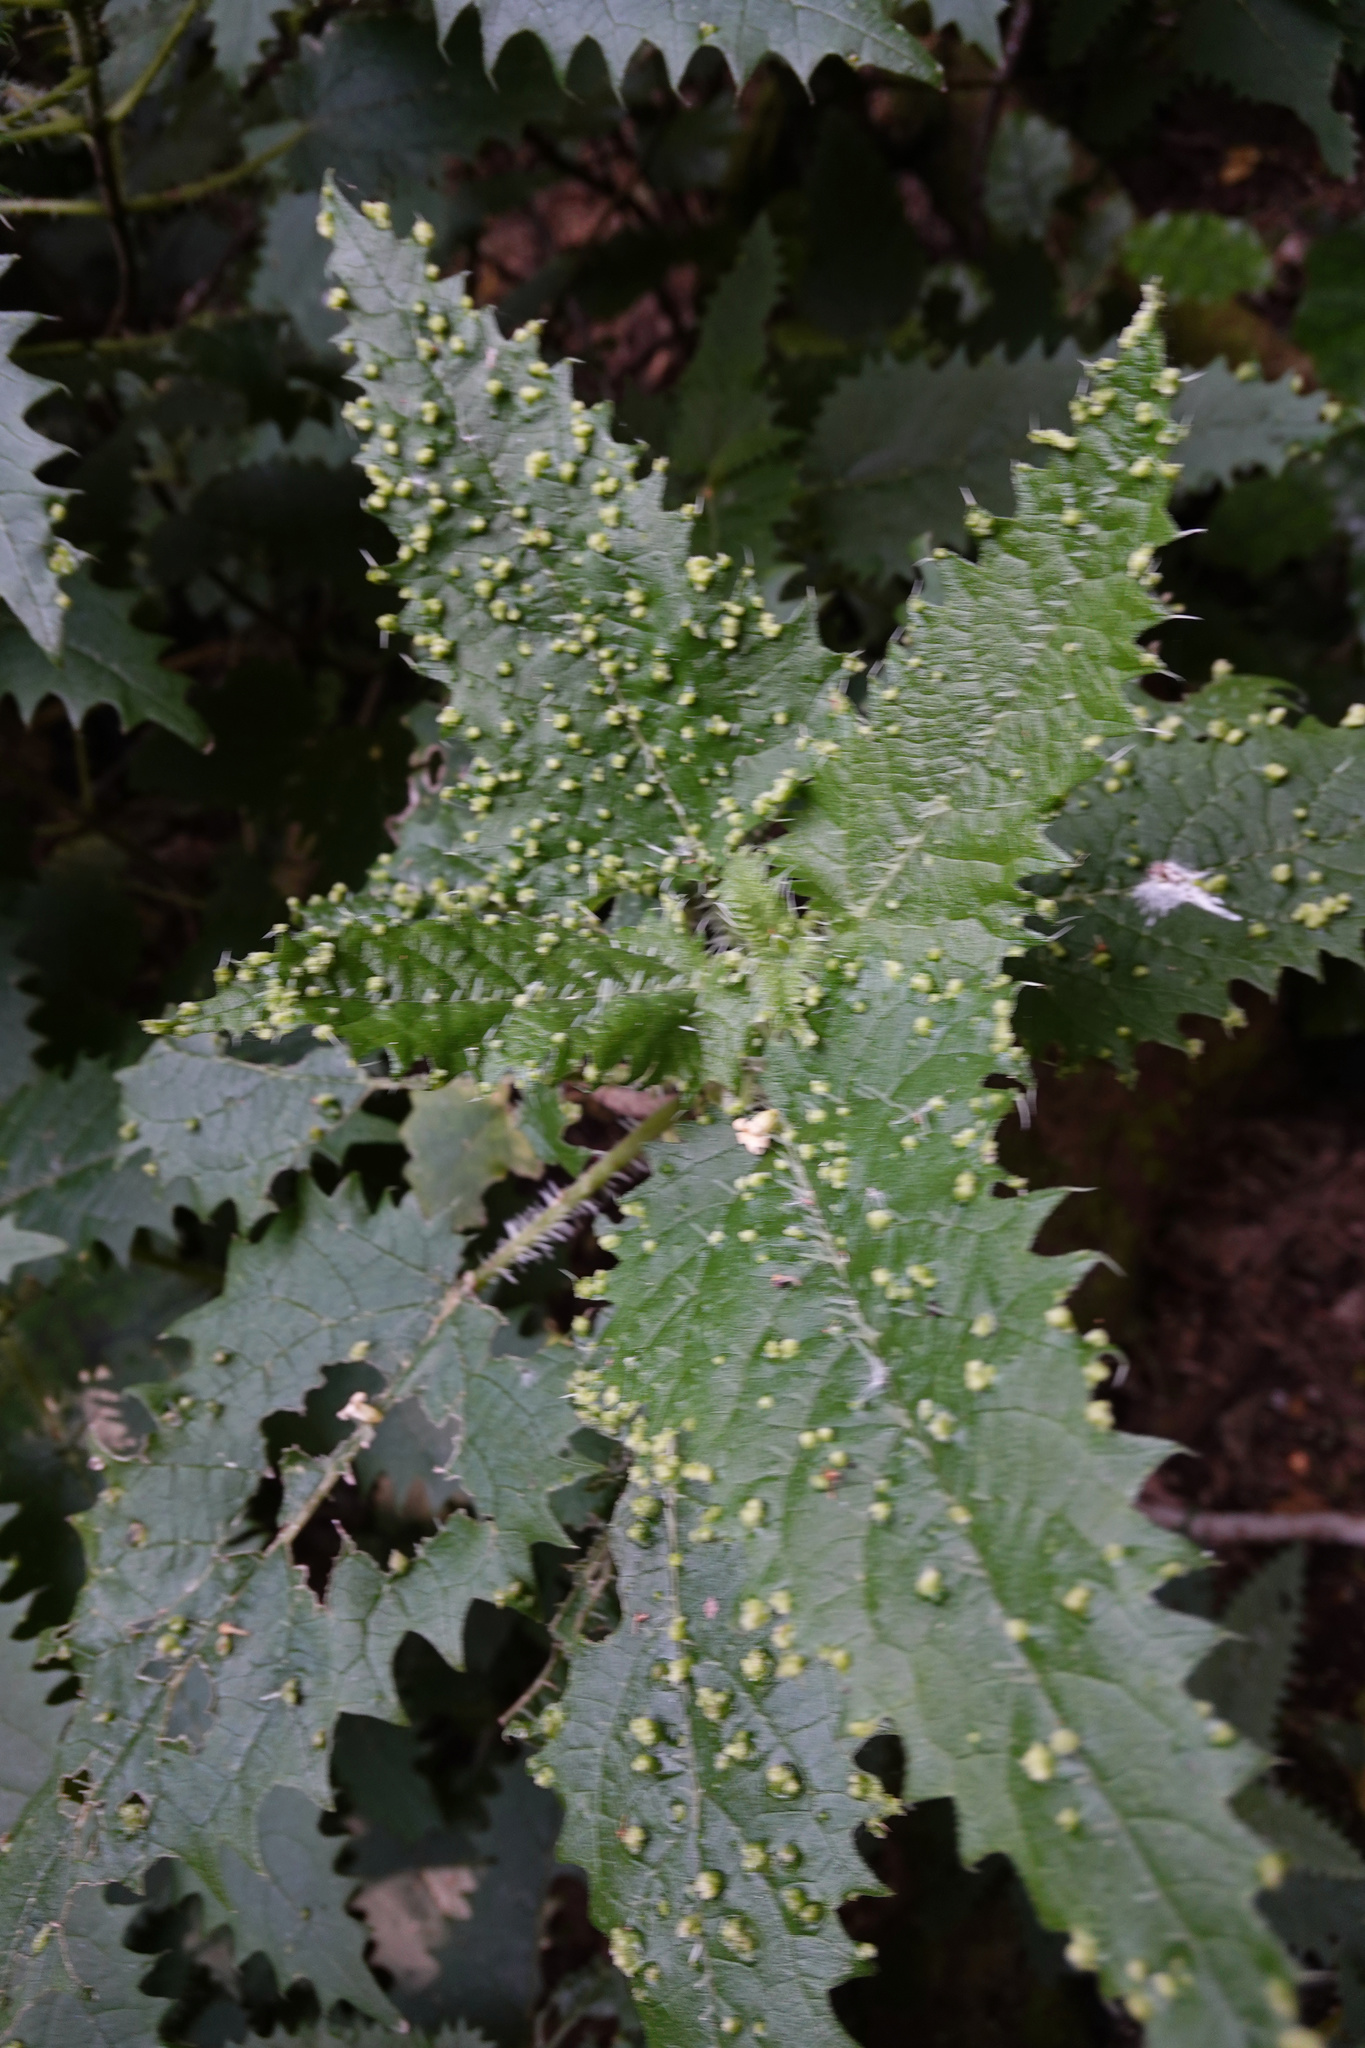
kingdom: Animalia
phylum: Arthropoda
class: Arachnida
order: Trombidiformes
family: Eriophyidae
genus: Vittacus
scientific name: Vittacus
